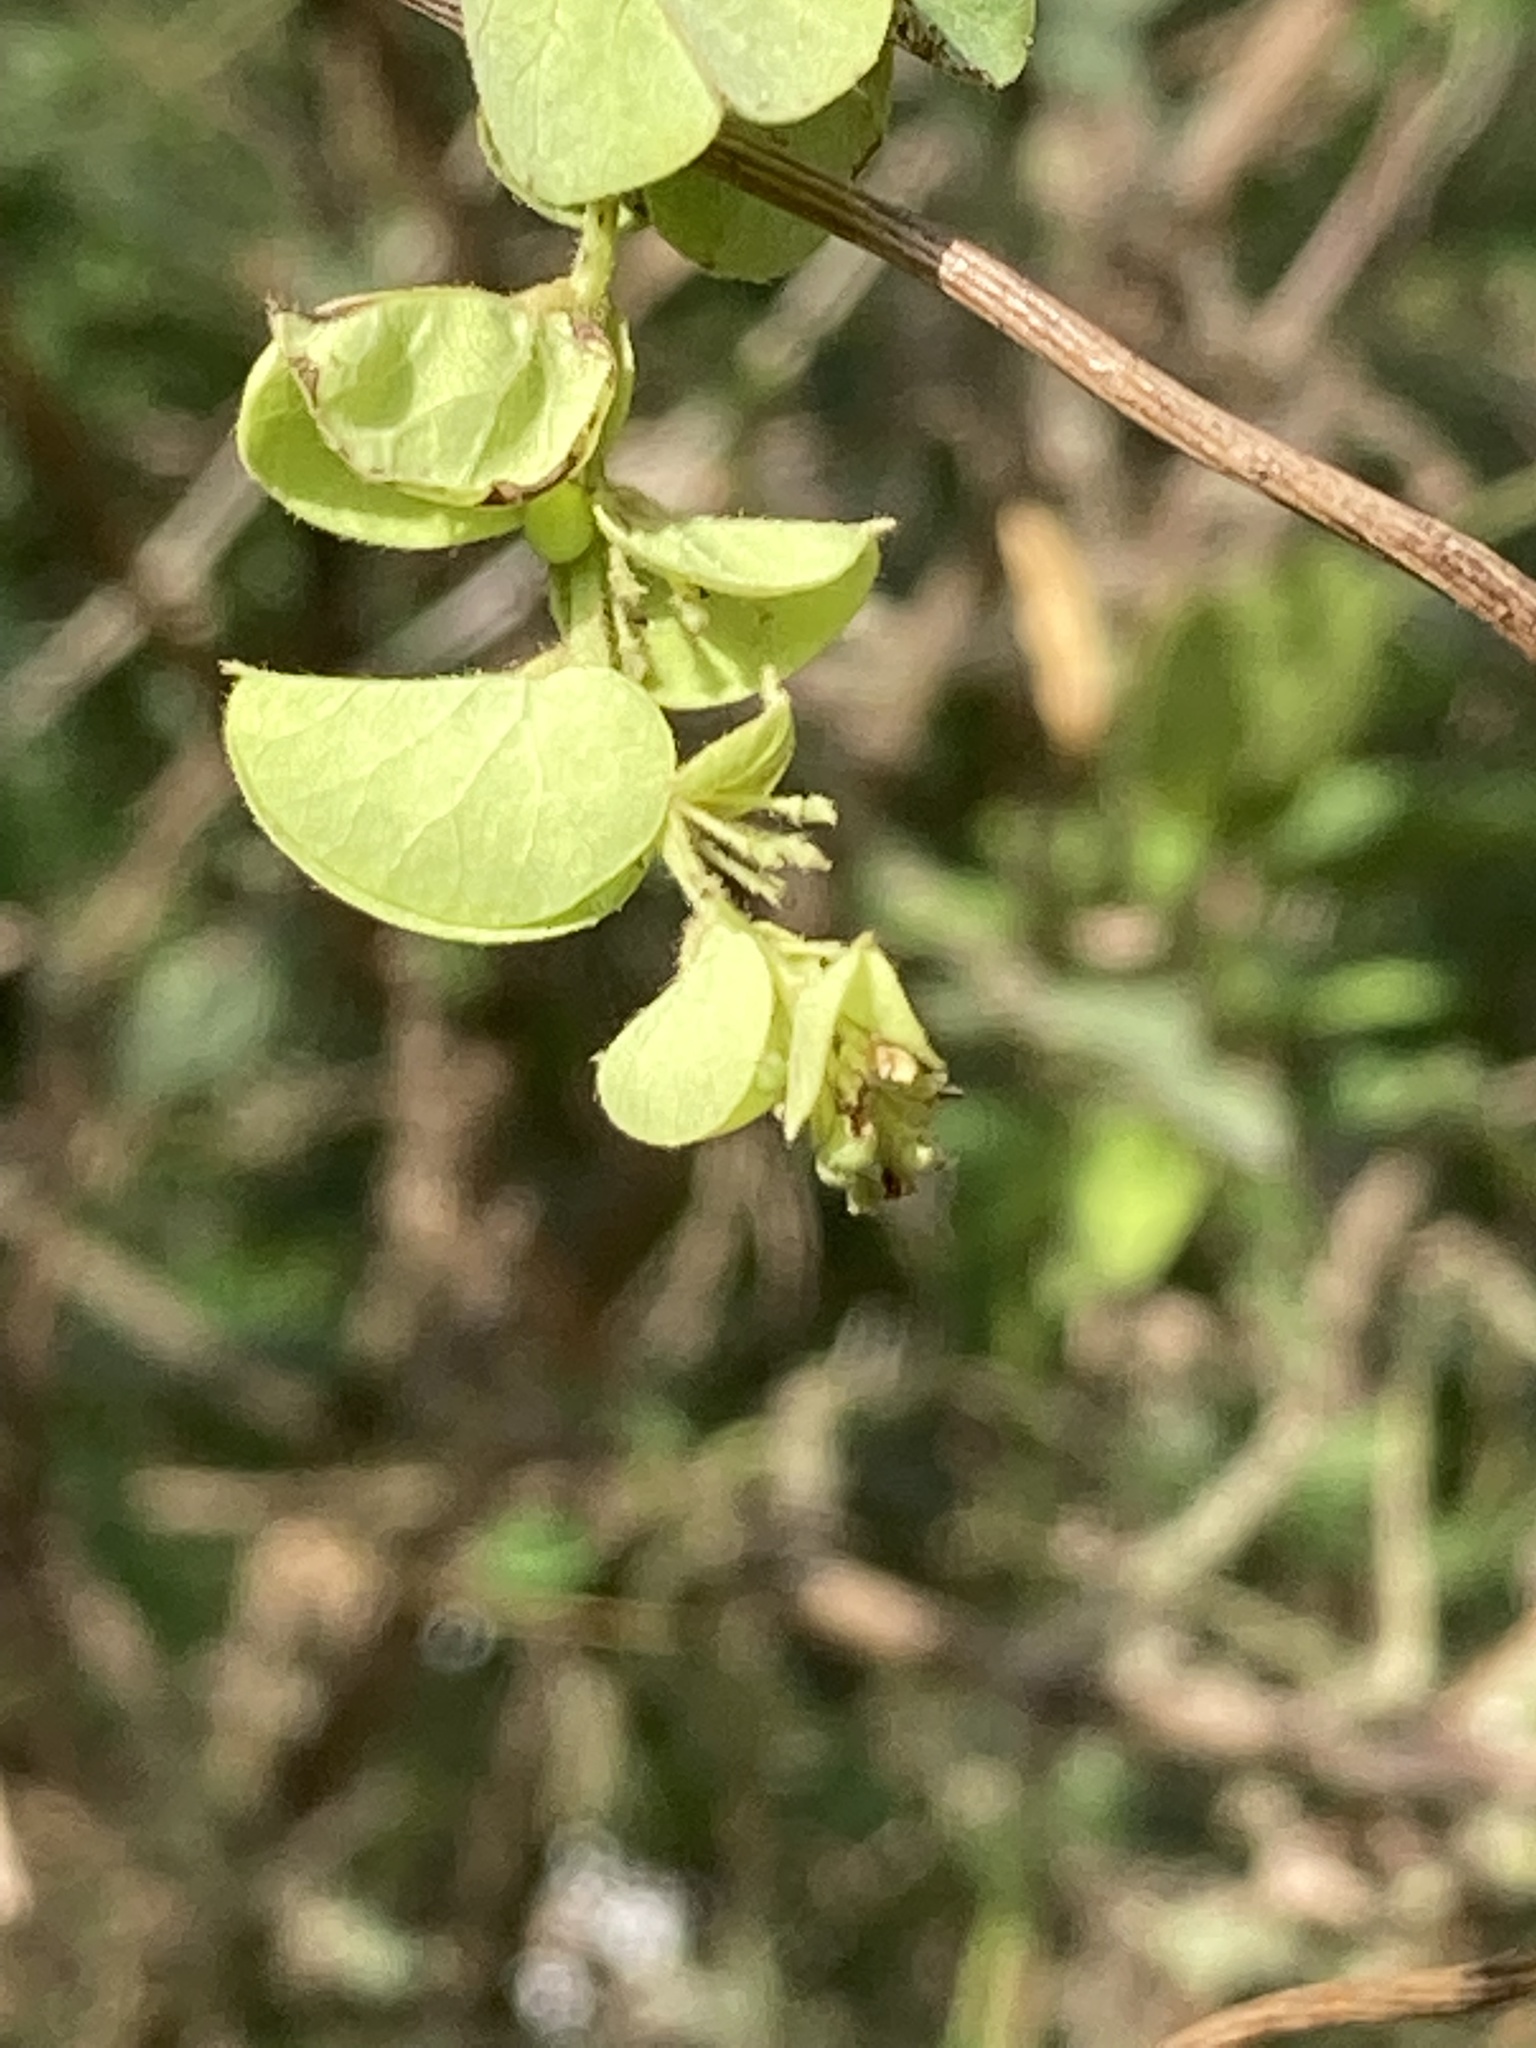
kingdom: Plantae
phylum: Tracheophyta
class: Magnoliopsida
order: Ranunculales
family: Menispermaceae
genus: Cissampelos
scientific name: Cissampelos pareira
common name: Velvetleaf
